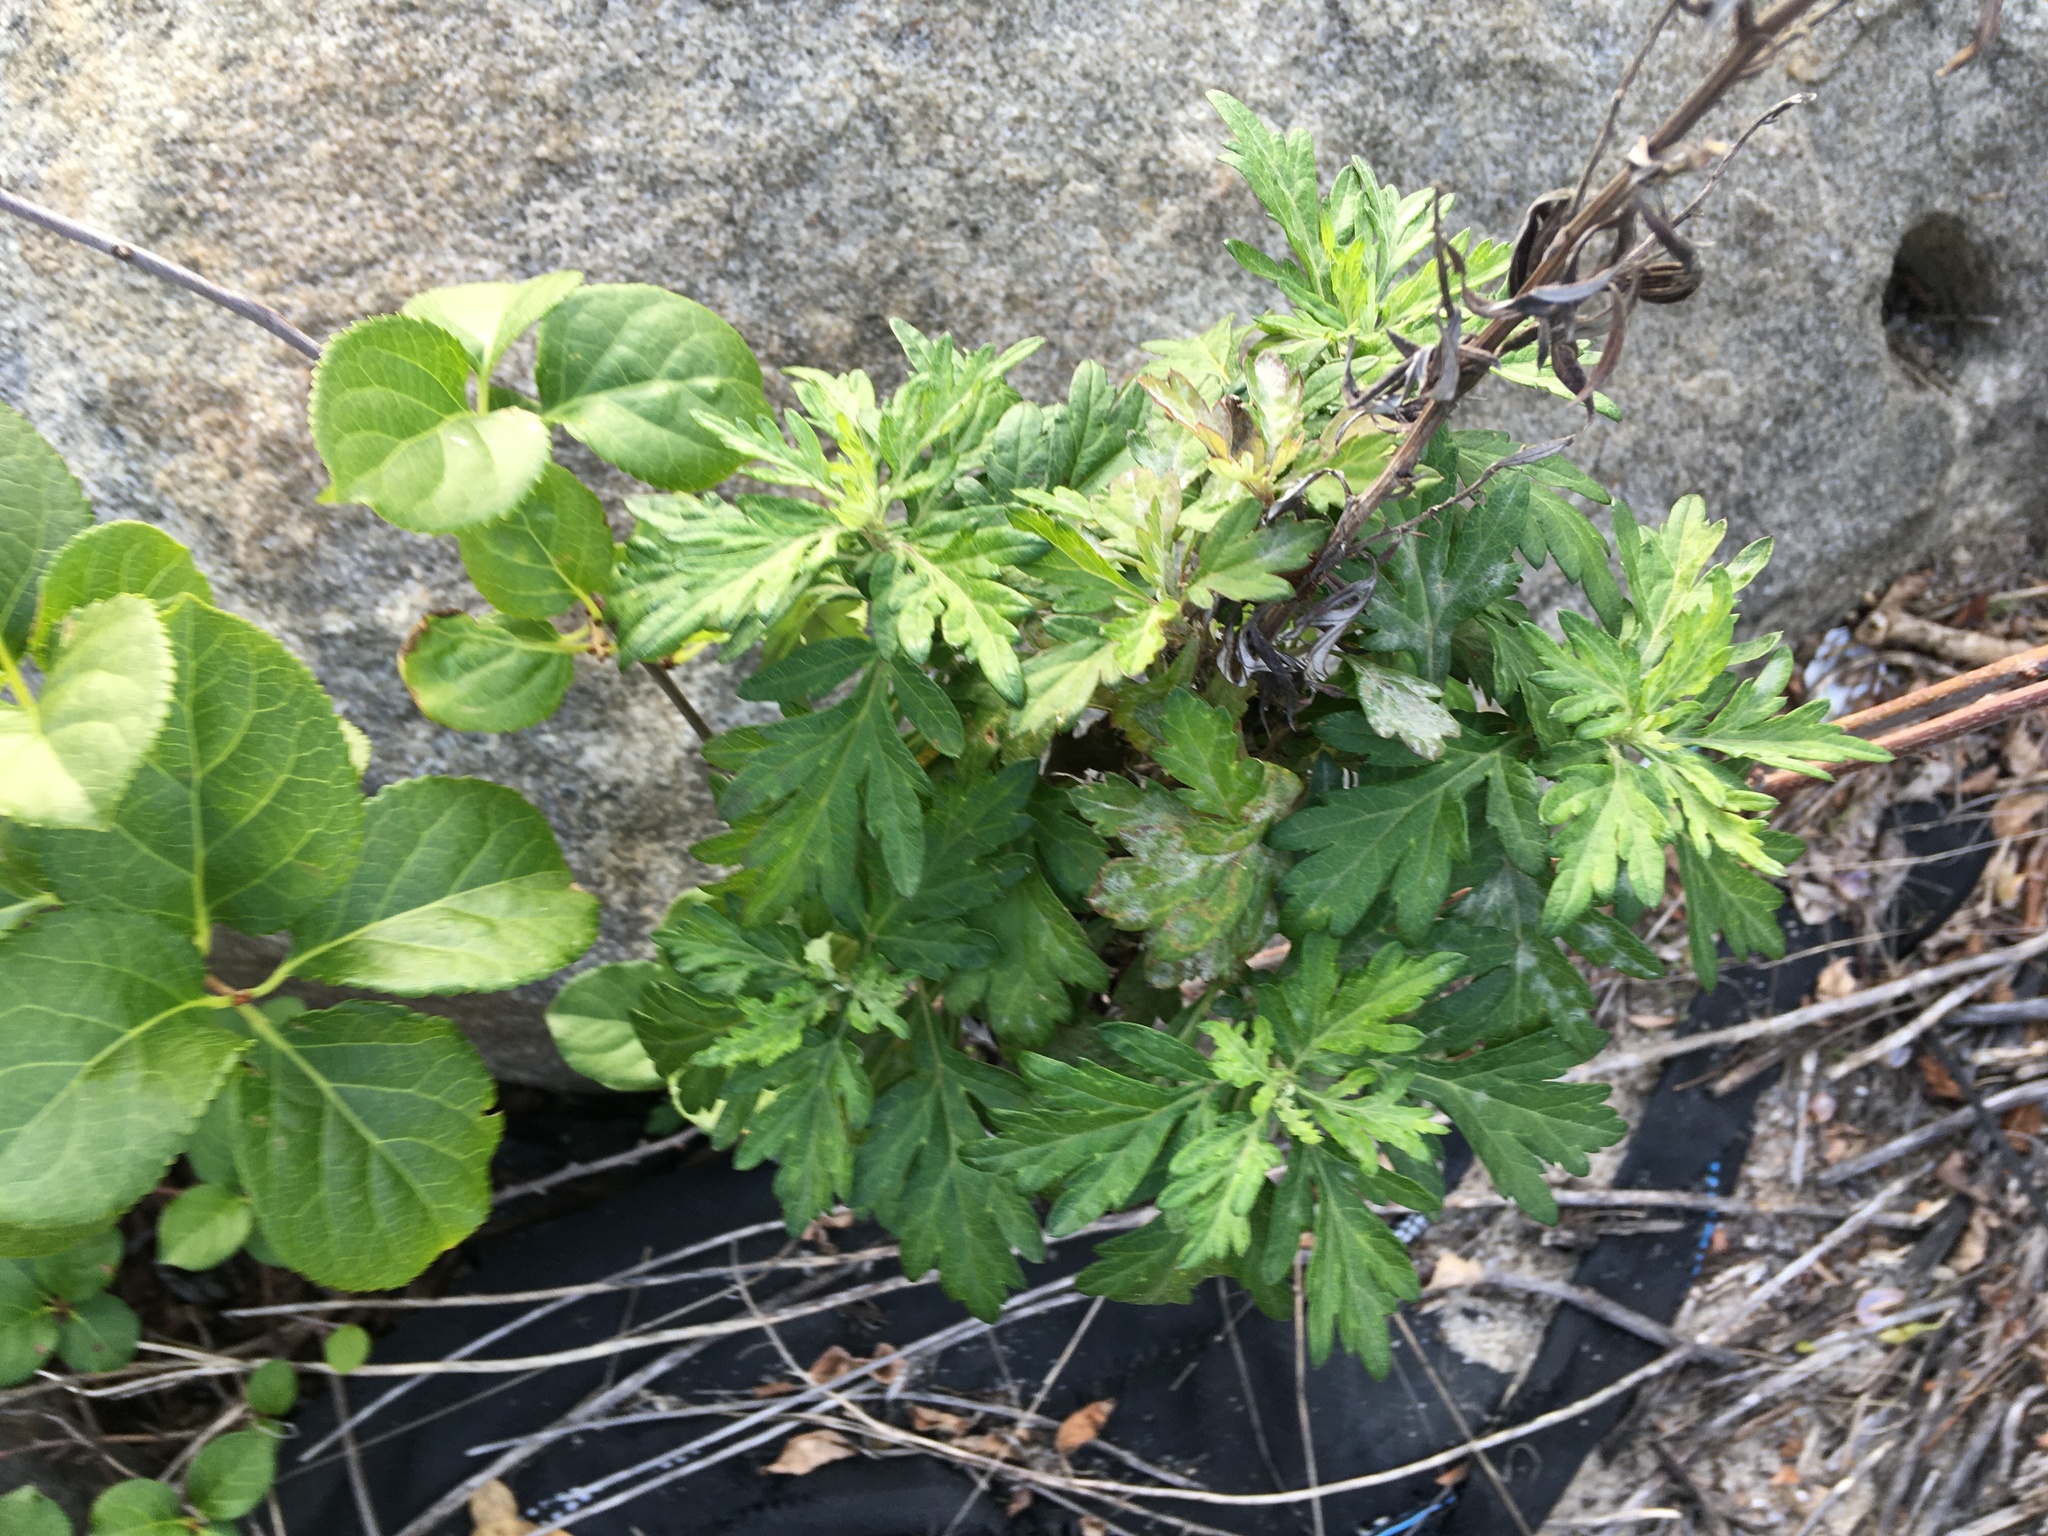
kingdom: Plantae
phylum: Tracheophyta
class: Magnoliopsida
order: Asterales
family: Asteraceae
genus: Artemisia
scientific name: Artemisia vulgaris
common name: Mugwort
